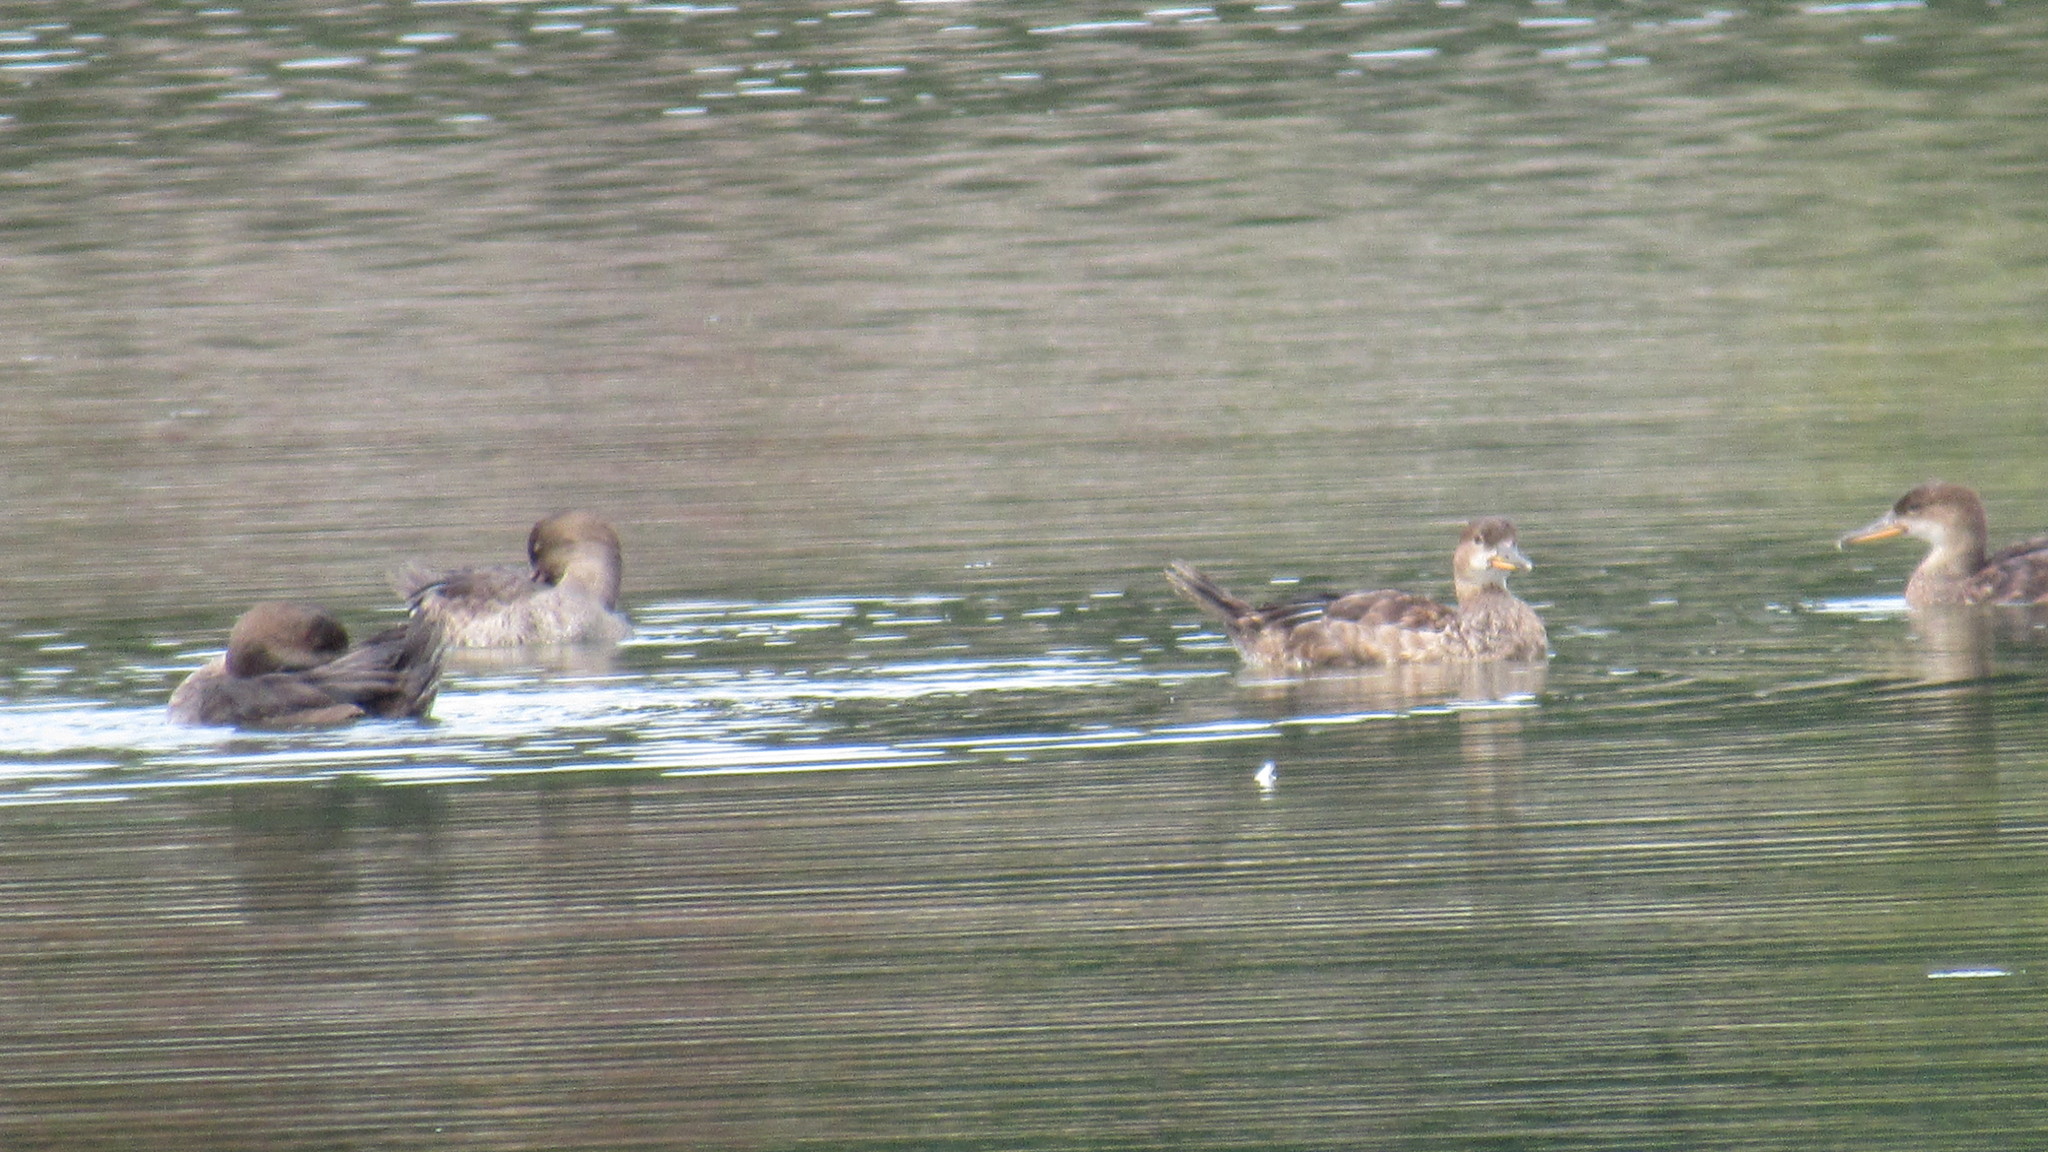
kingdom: Animalia
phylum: Chordata
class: Aves
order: Anseriformes
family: Anatidae
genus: Lophodytes
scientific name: Lophodytes cucullatus
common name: Hooded merganser
